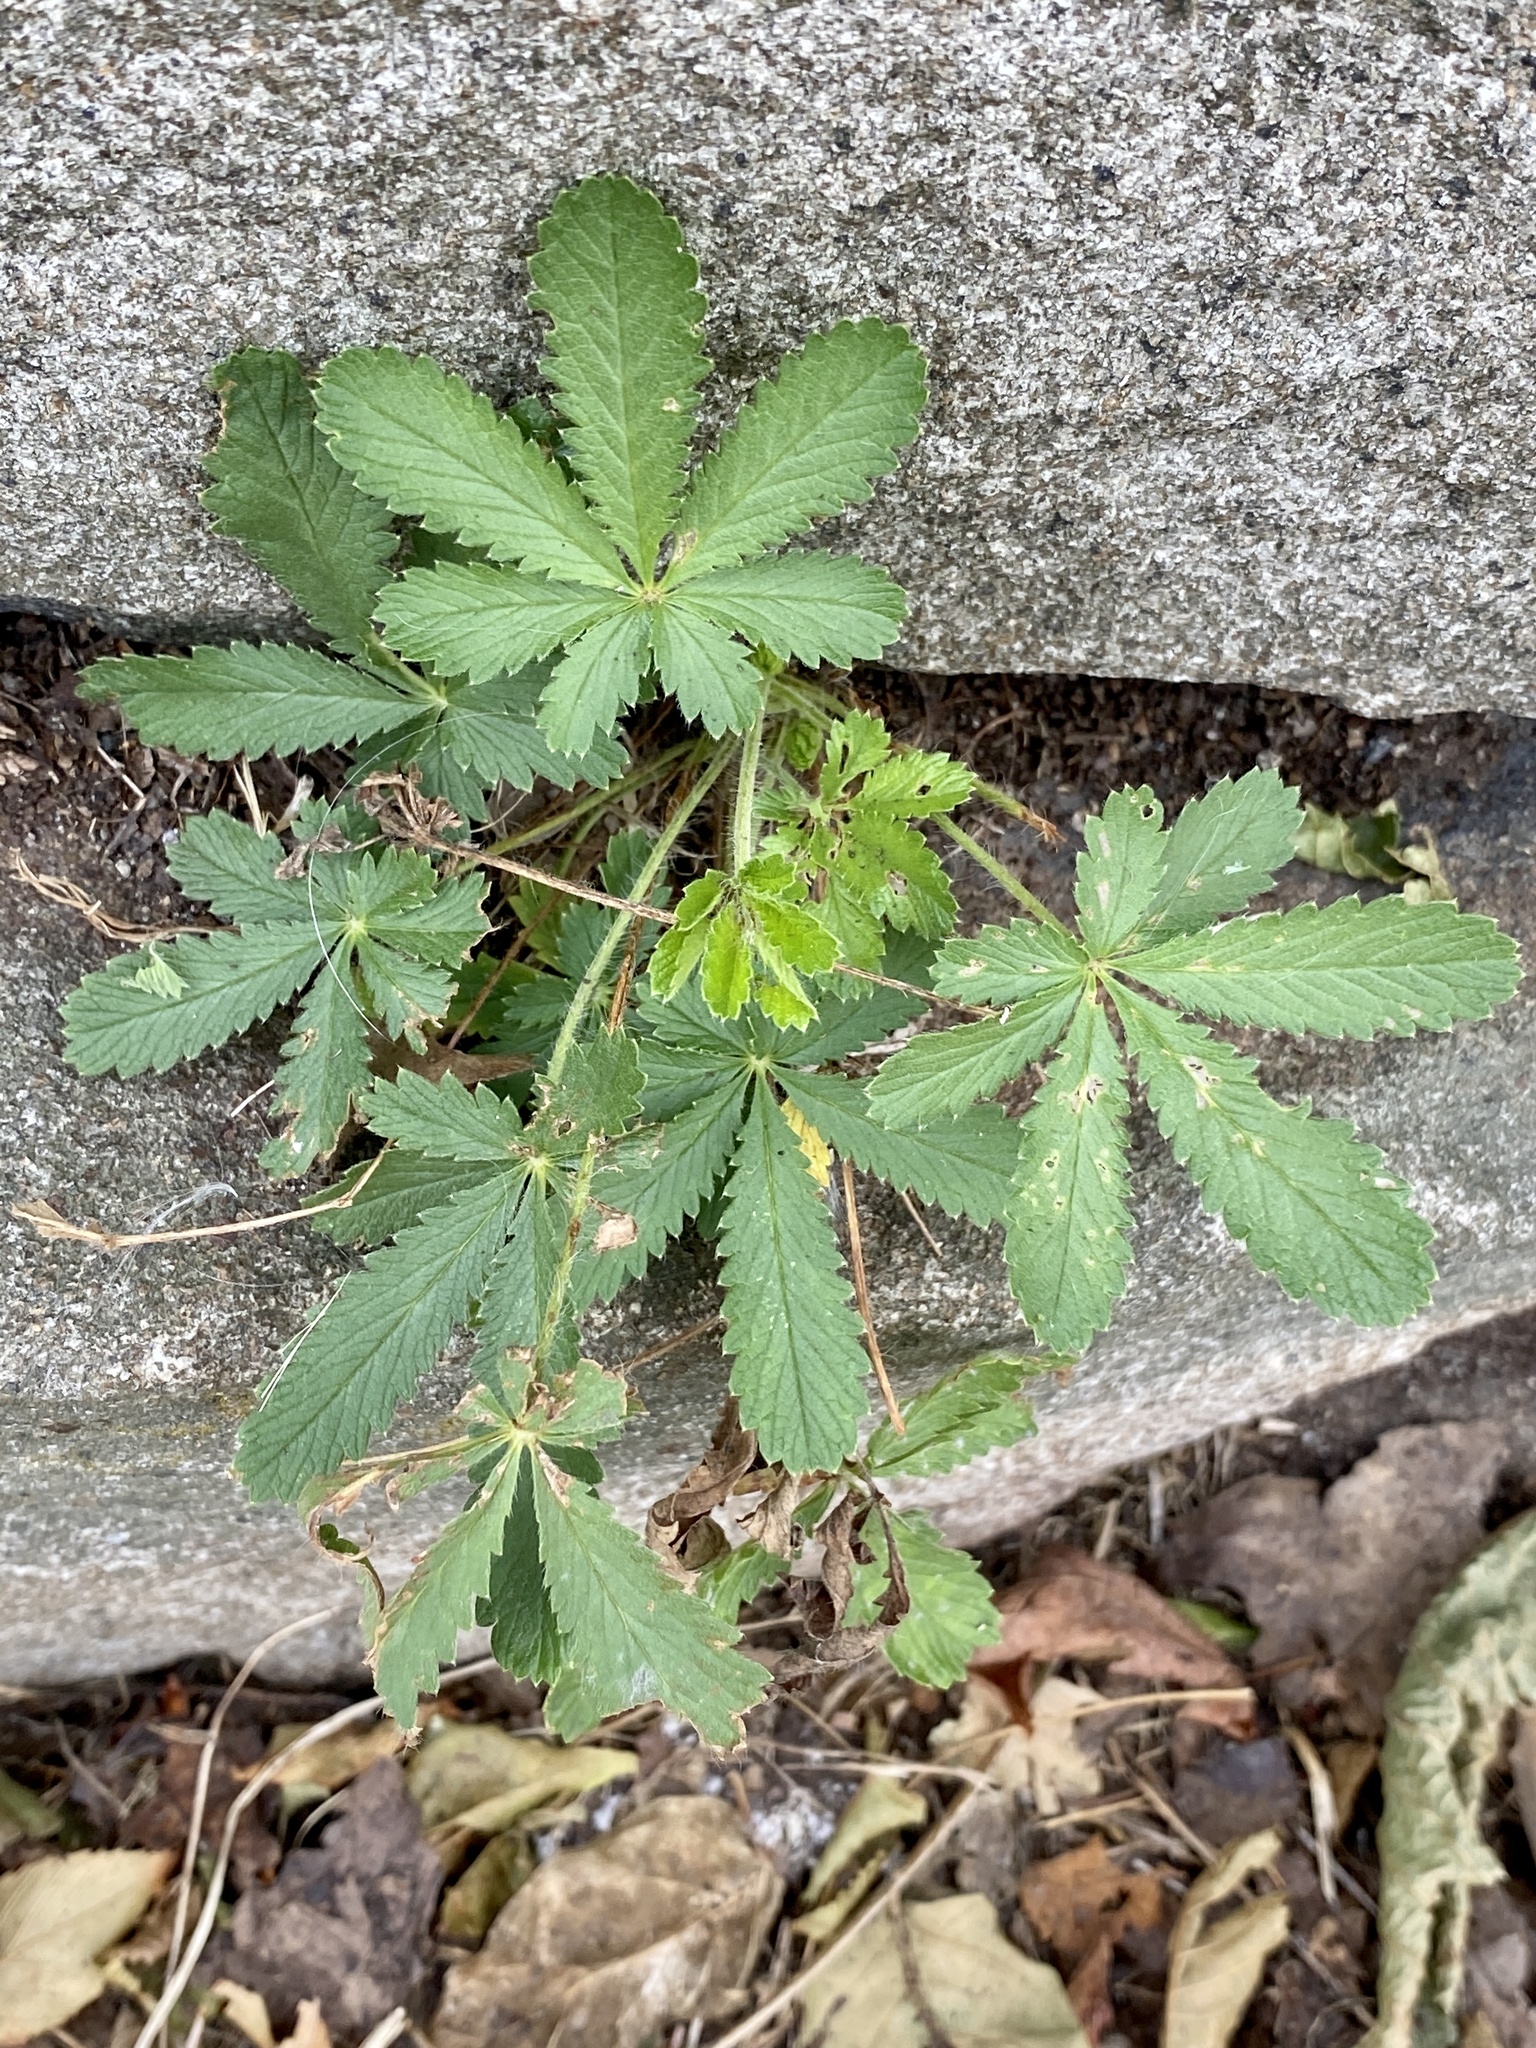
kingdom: Plantae
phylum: Tracheophyta
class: Magnoliopsida
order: Rosales
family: Rosaceae
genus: Potentilla
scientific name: Potentilla recta
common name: Sulphur cinquefoil
